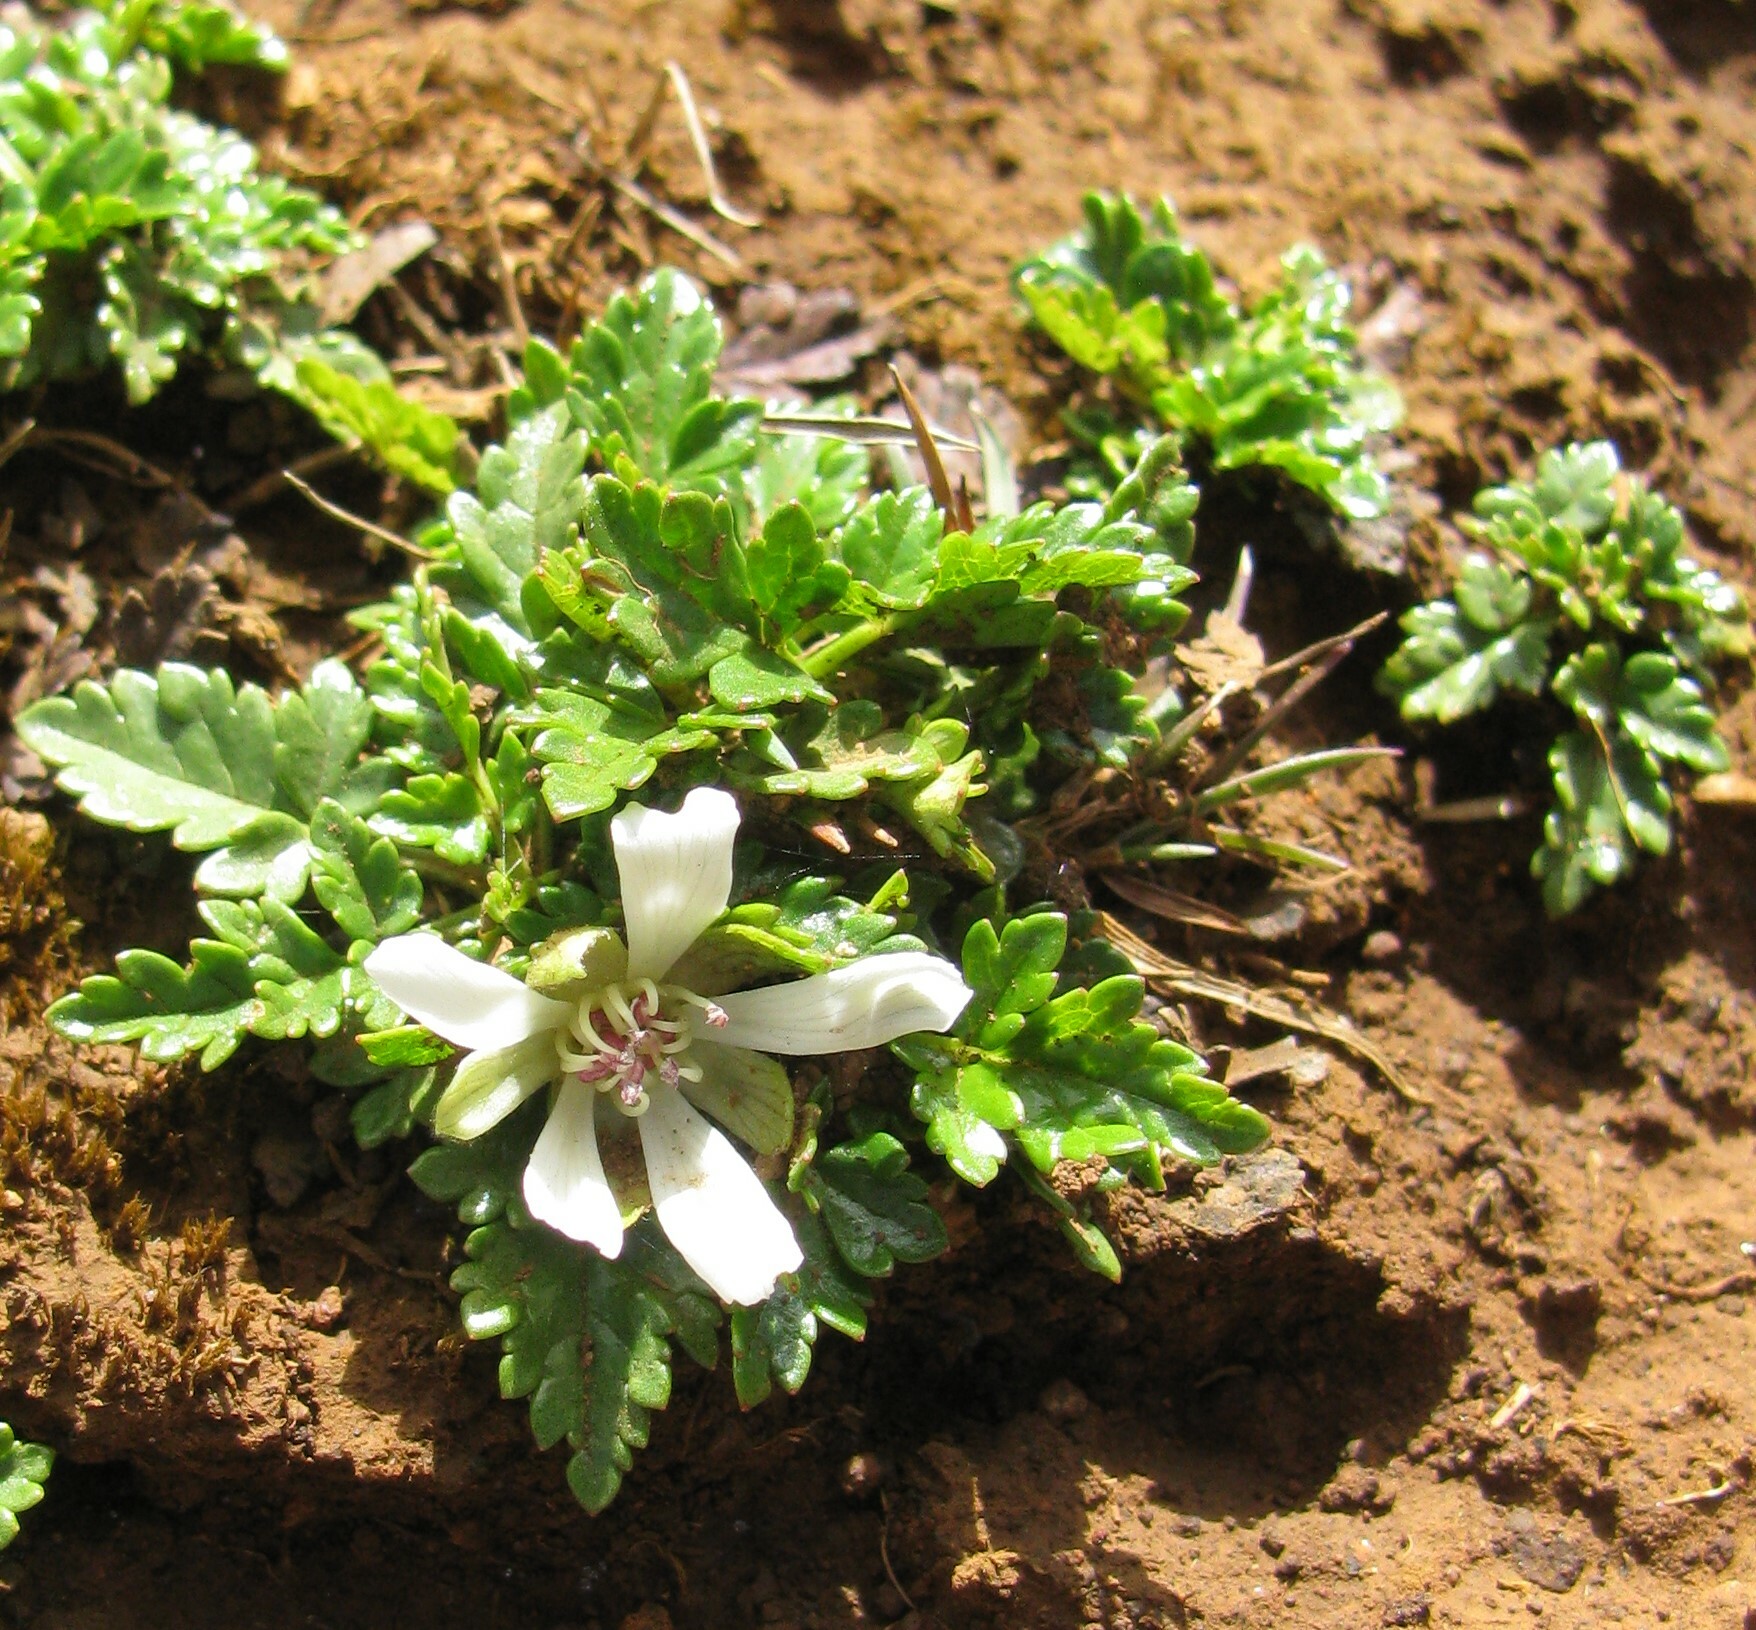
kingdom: Plantae
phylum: Tracheophyta
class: Magnoliopsida
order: Rosales
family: Rosaceae
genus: Rubus
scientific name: Rubus gunnianus
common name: Mountain raspberry
